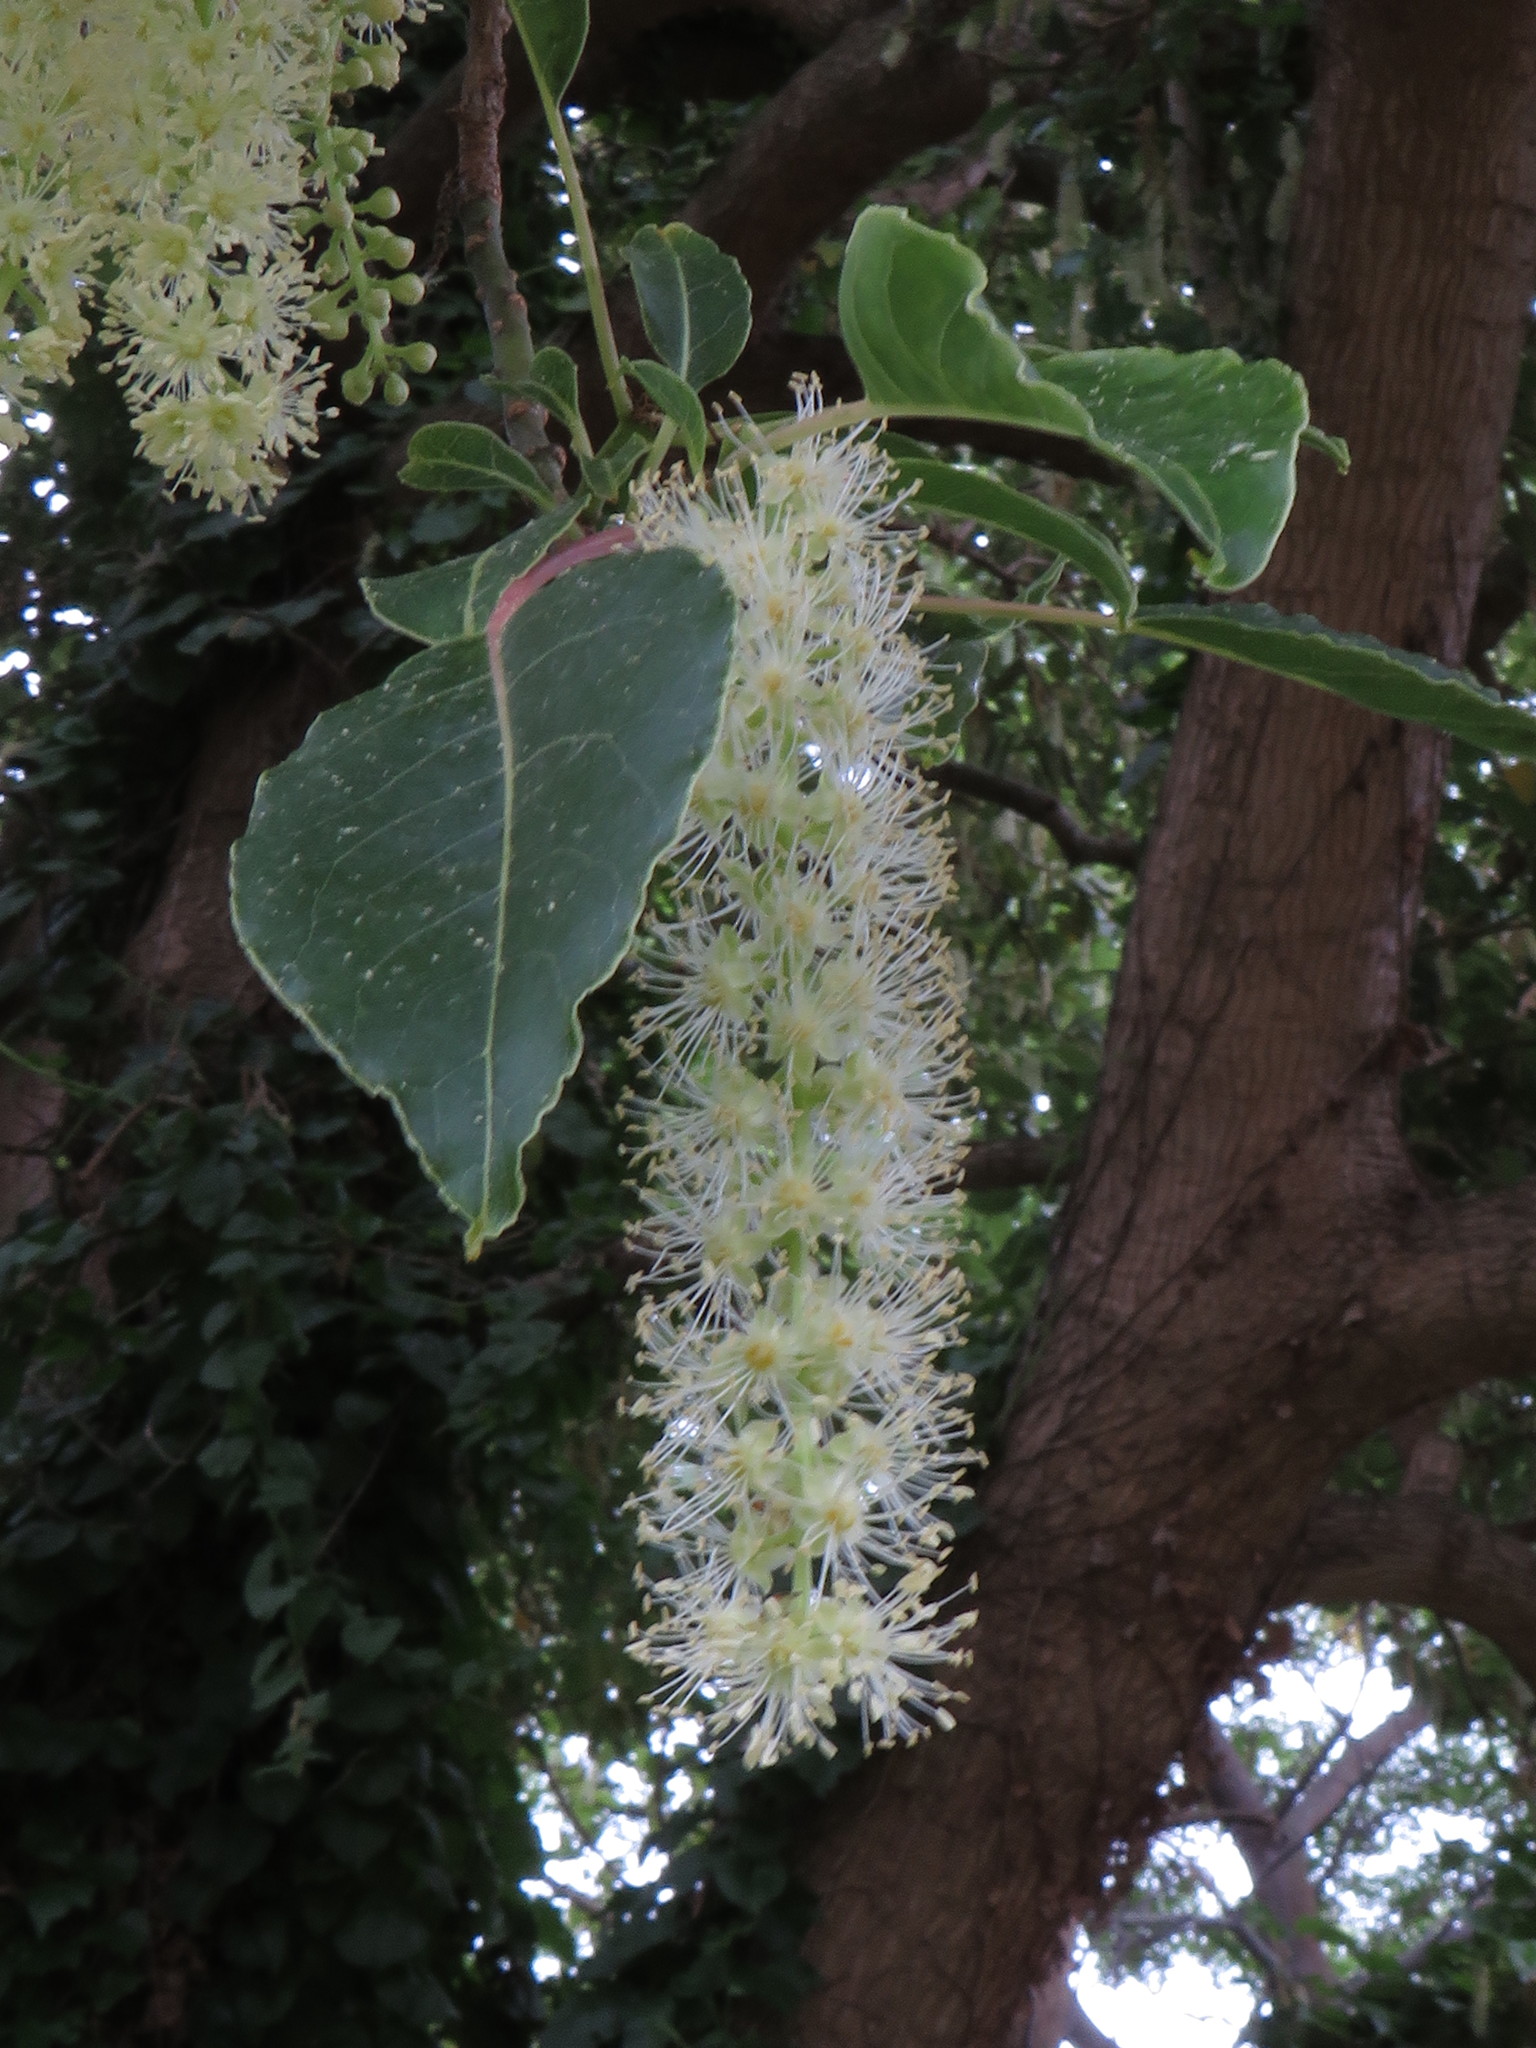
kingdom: Plantae
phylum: Tracheophyta
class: Magnoliopsida
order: Caryophyllales
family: Phytolaccaceae
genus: Phytolacca
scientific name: Phytolacca dioica
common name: Pokeweed
